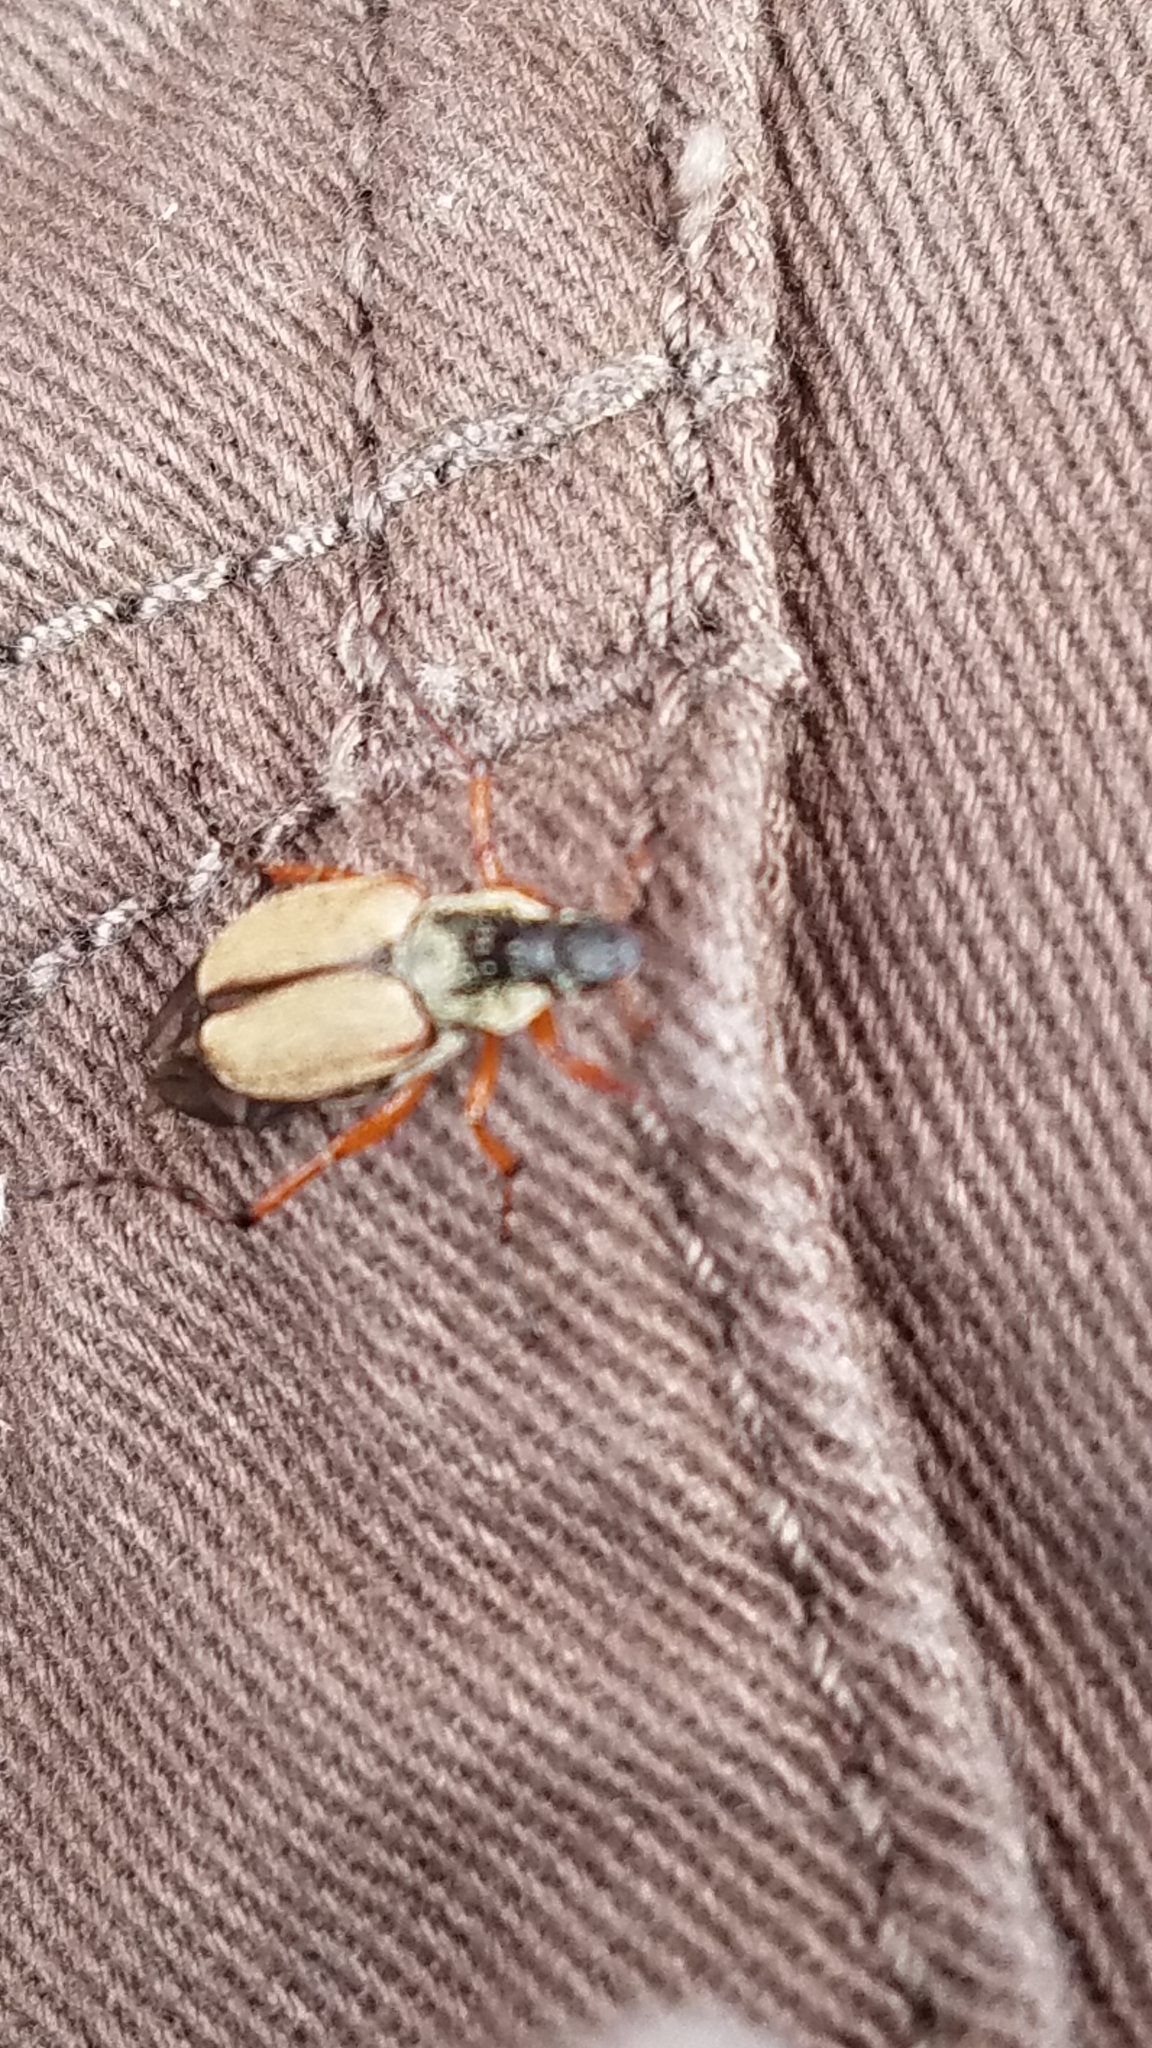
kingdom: Animalia
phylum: Arthropoda
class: Insecta
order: Coleoptera
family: Scarabaeidae
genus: Macrodactylus
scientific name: Macrodactylus subspinosus
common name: American rose chafer
